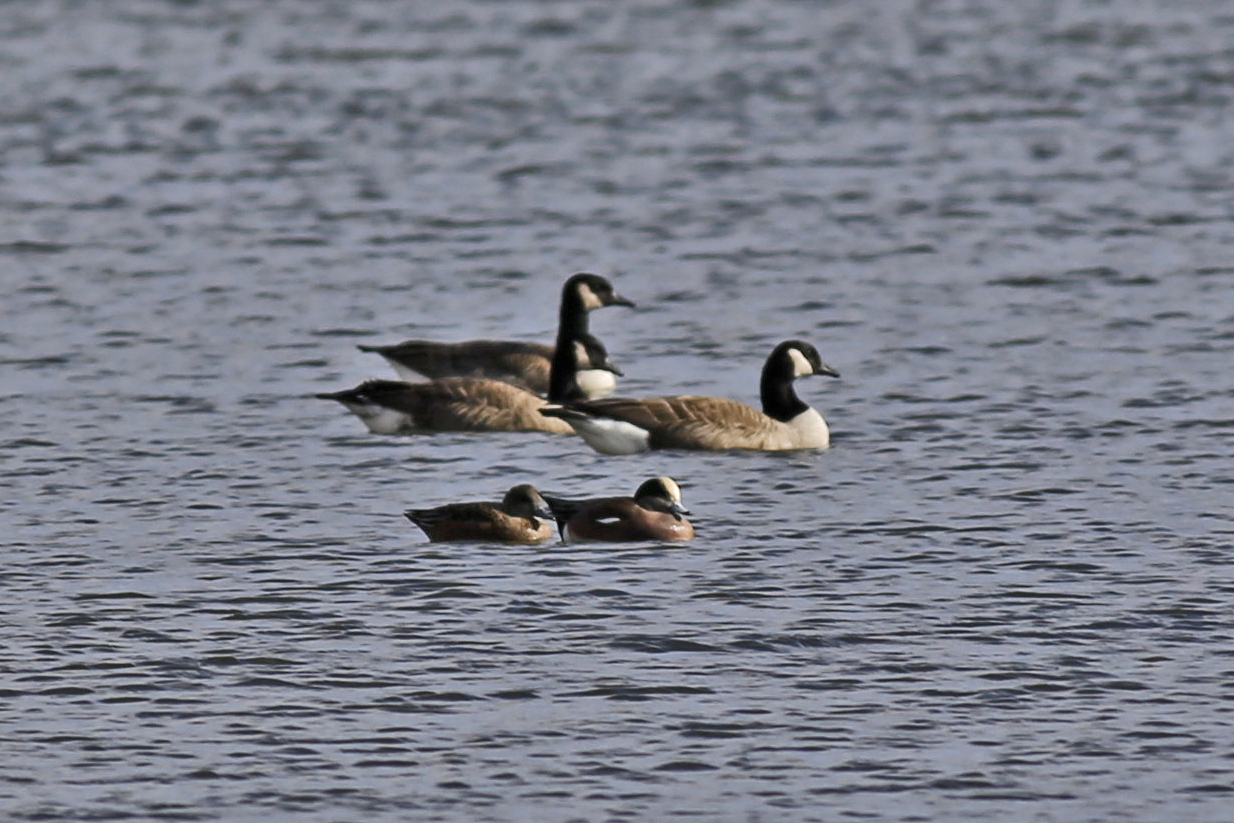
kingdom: Animalia
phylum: Chordata
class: Aves
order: Anseriformes
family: Anatidae
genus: Mareca
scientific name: Mareca americana
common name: American wigeon
